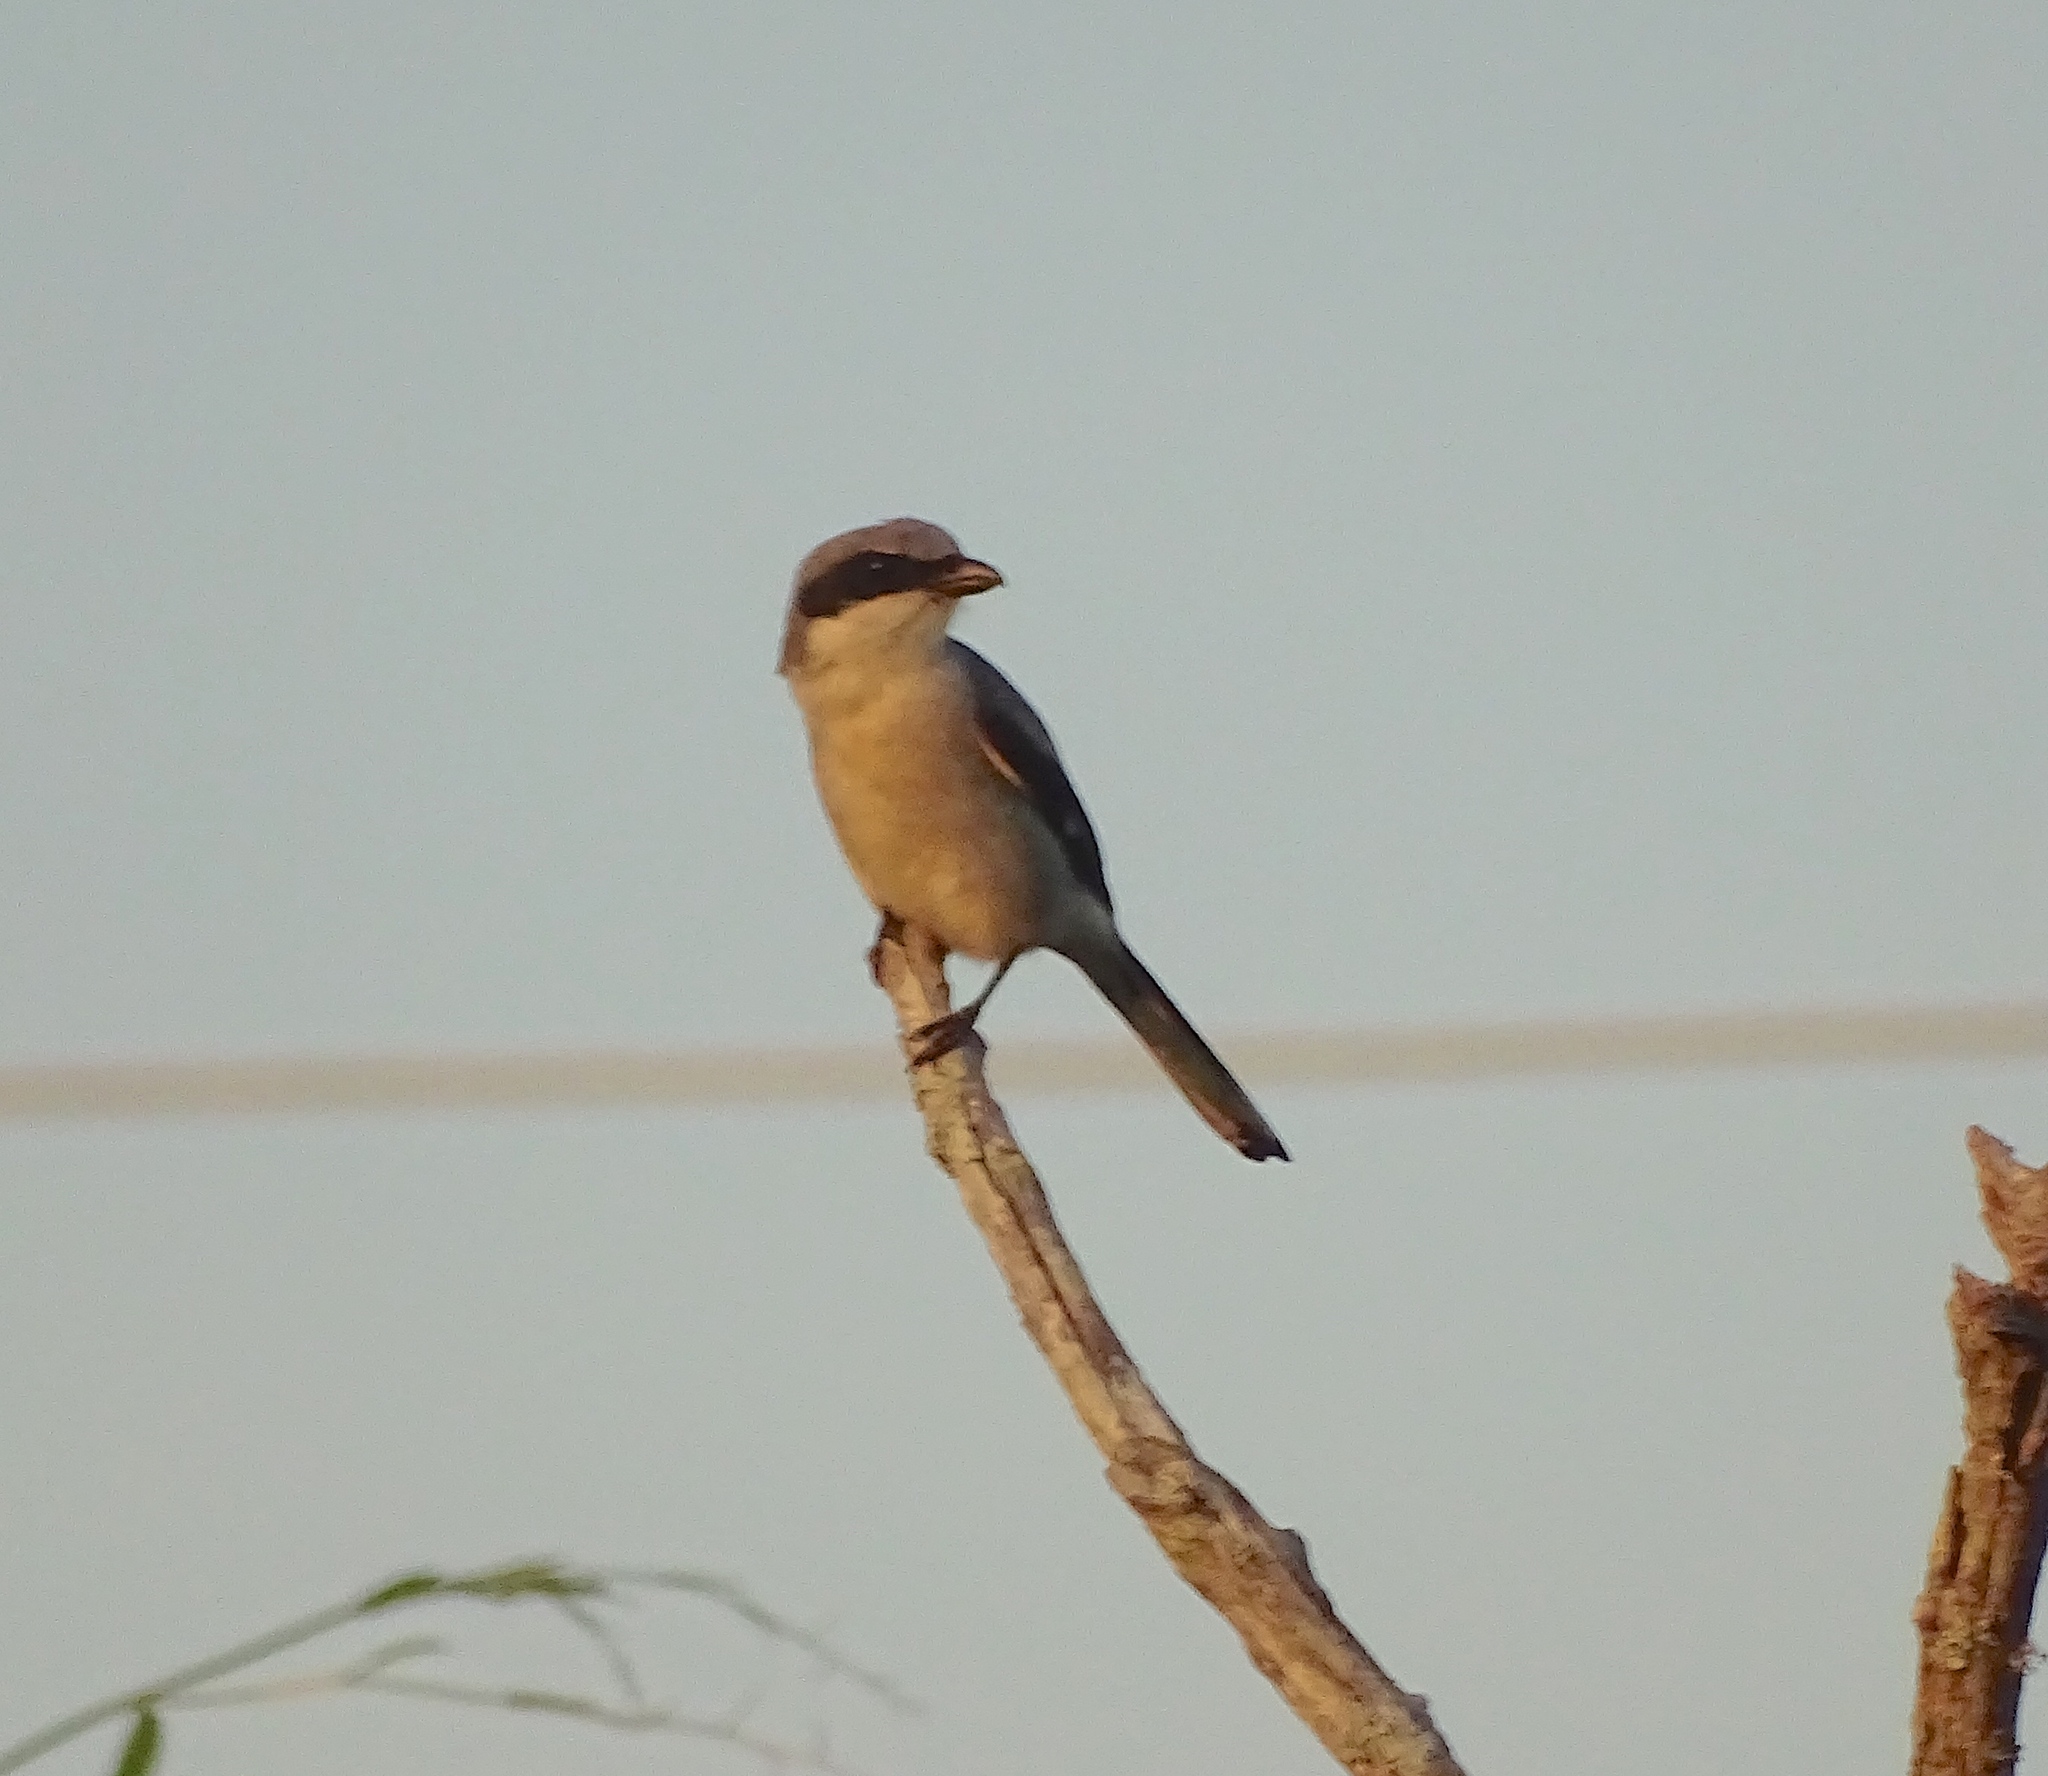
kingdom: Animalia
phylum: Chordata
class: Aves
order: Passeriformes
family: Laniidae
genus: Lanius
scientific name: Lanius ludovicianus
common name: Loggerhead shrike
